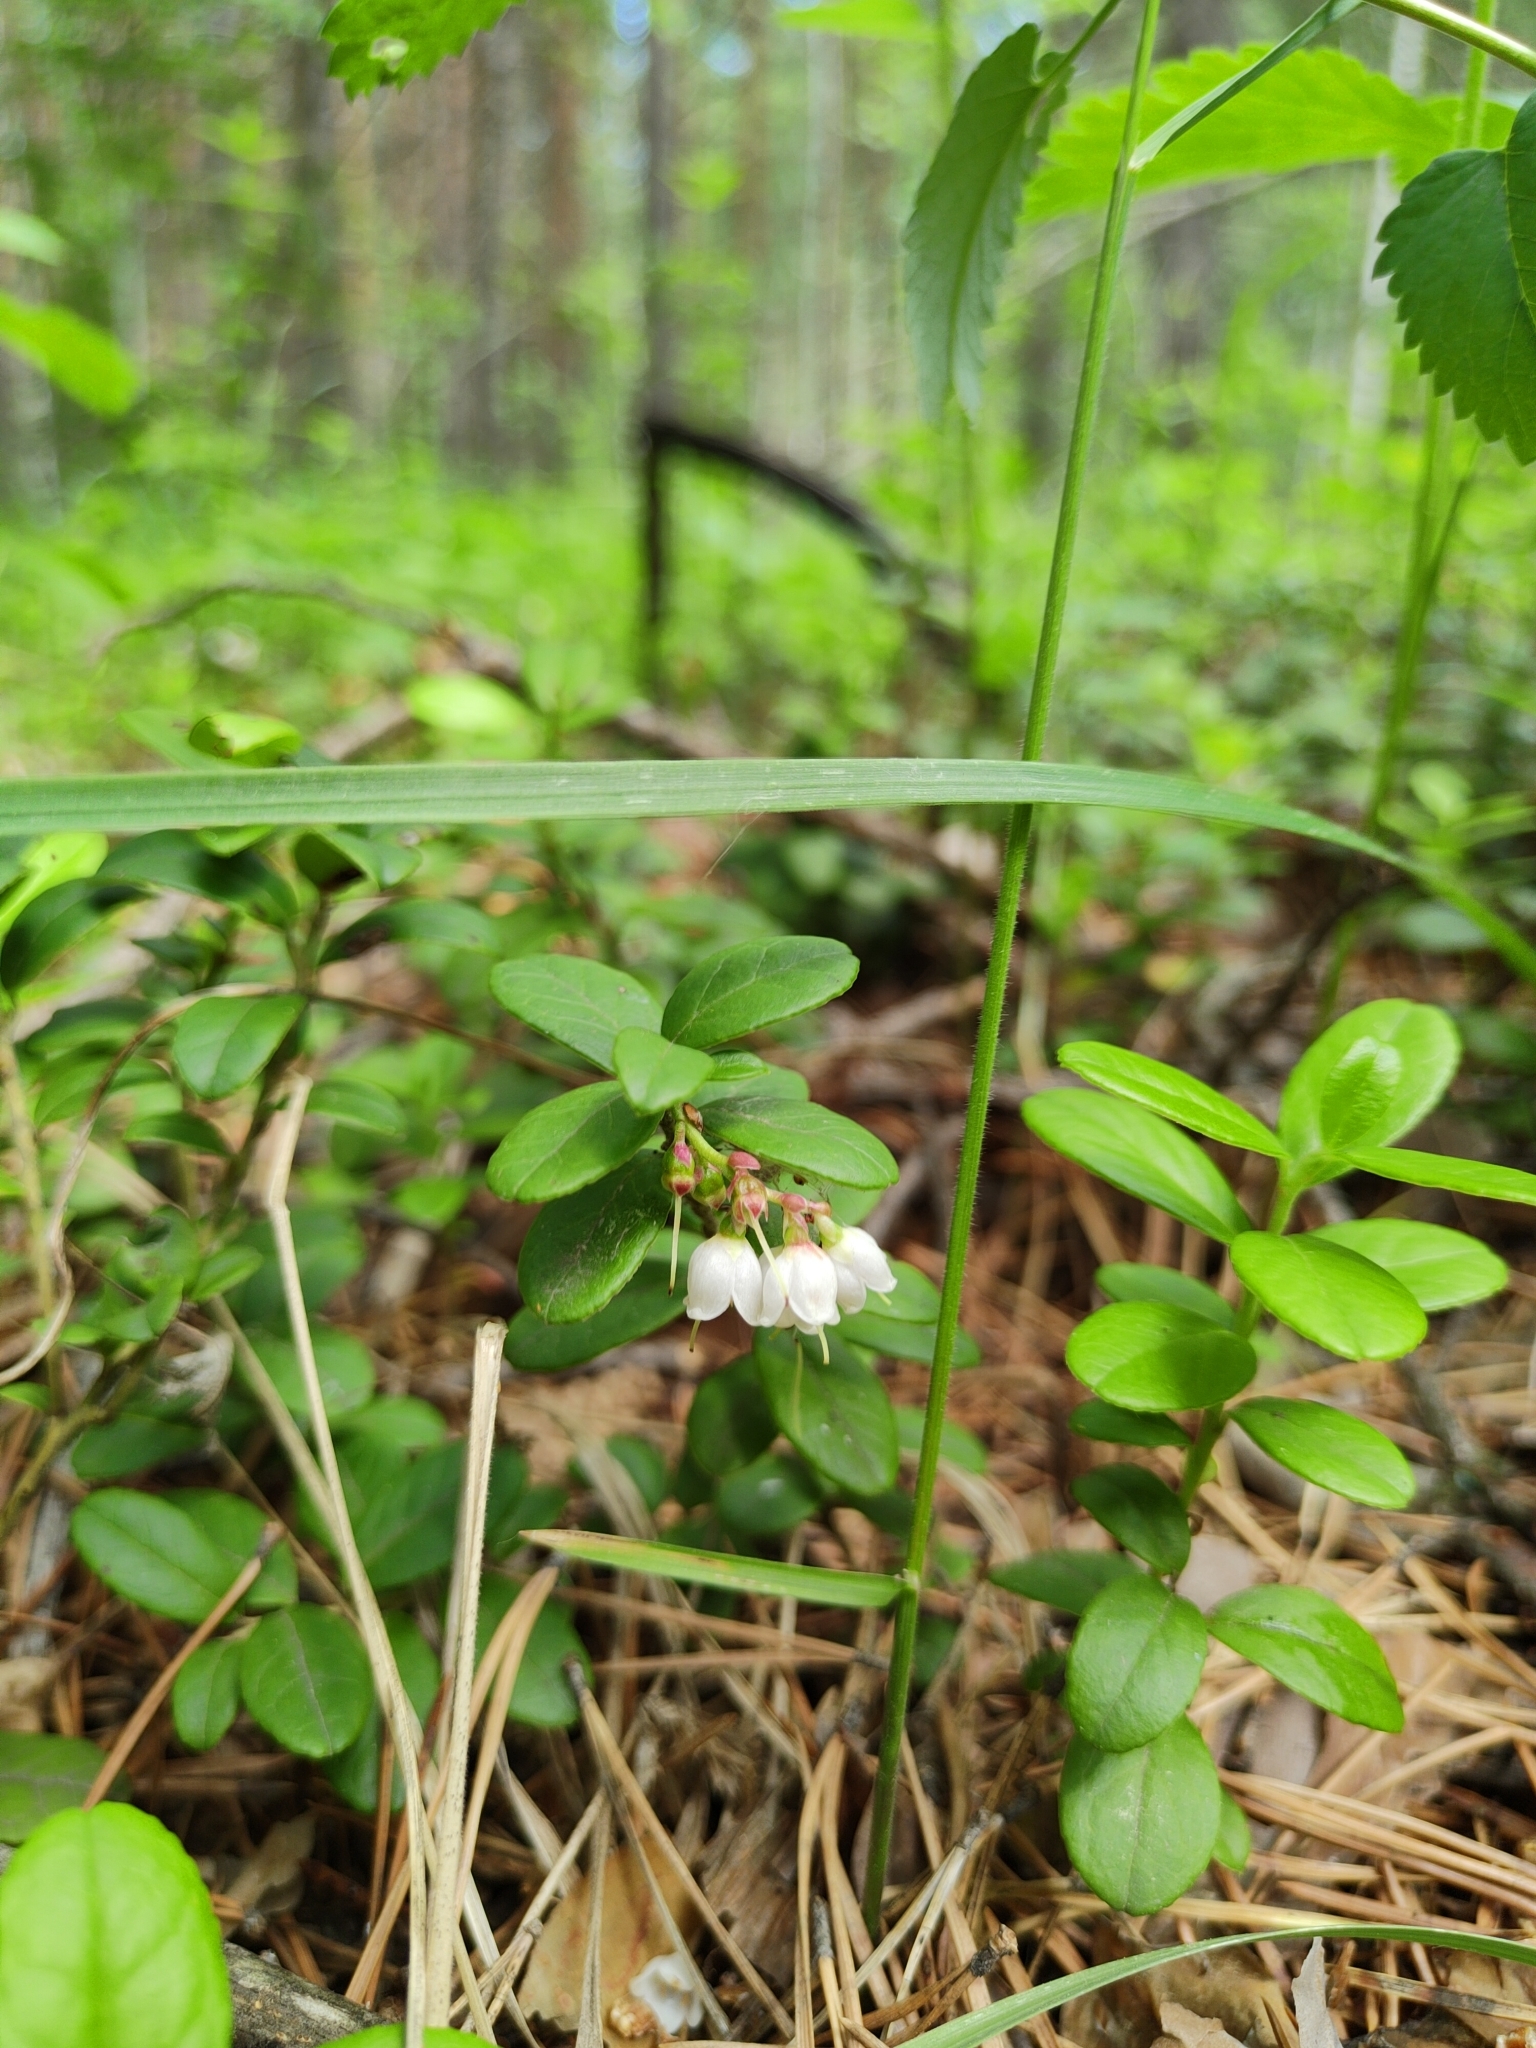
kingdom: Plantae
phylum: Tracheophyta
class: Magnoliopsida
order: Ericales
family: Ericaceae
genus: Vaccinium
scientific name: Vaccinium vitis-idaea
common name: Cowberry
